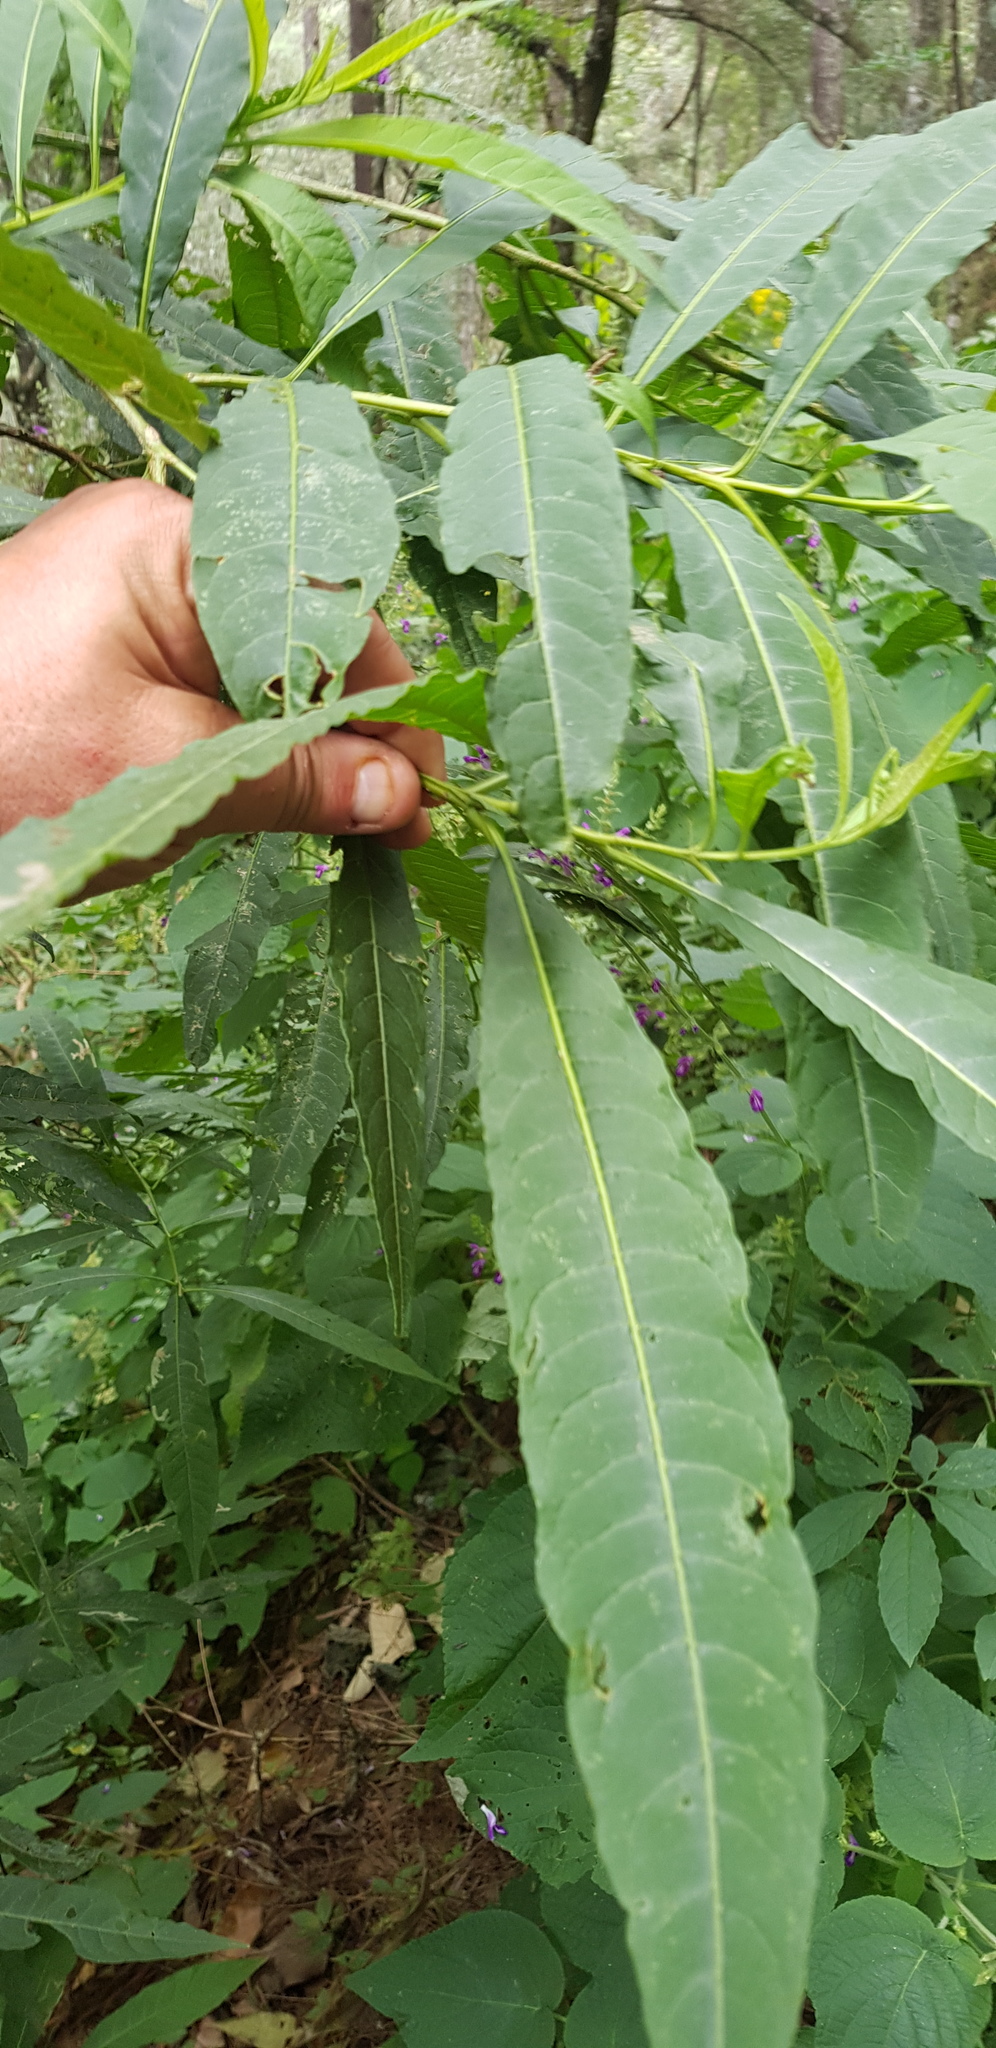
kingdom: Plantae
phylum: Tracheophyta
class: Magnoliopsida
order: Solanales
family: Solanaceae
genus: Solanum
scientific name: Solanum aligerum
